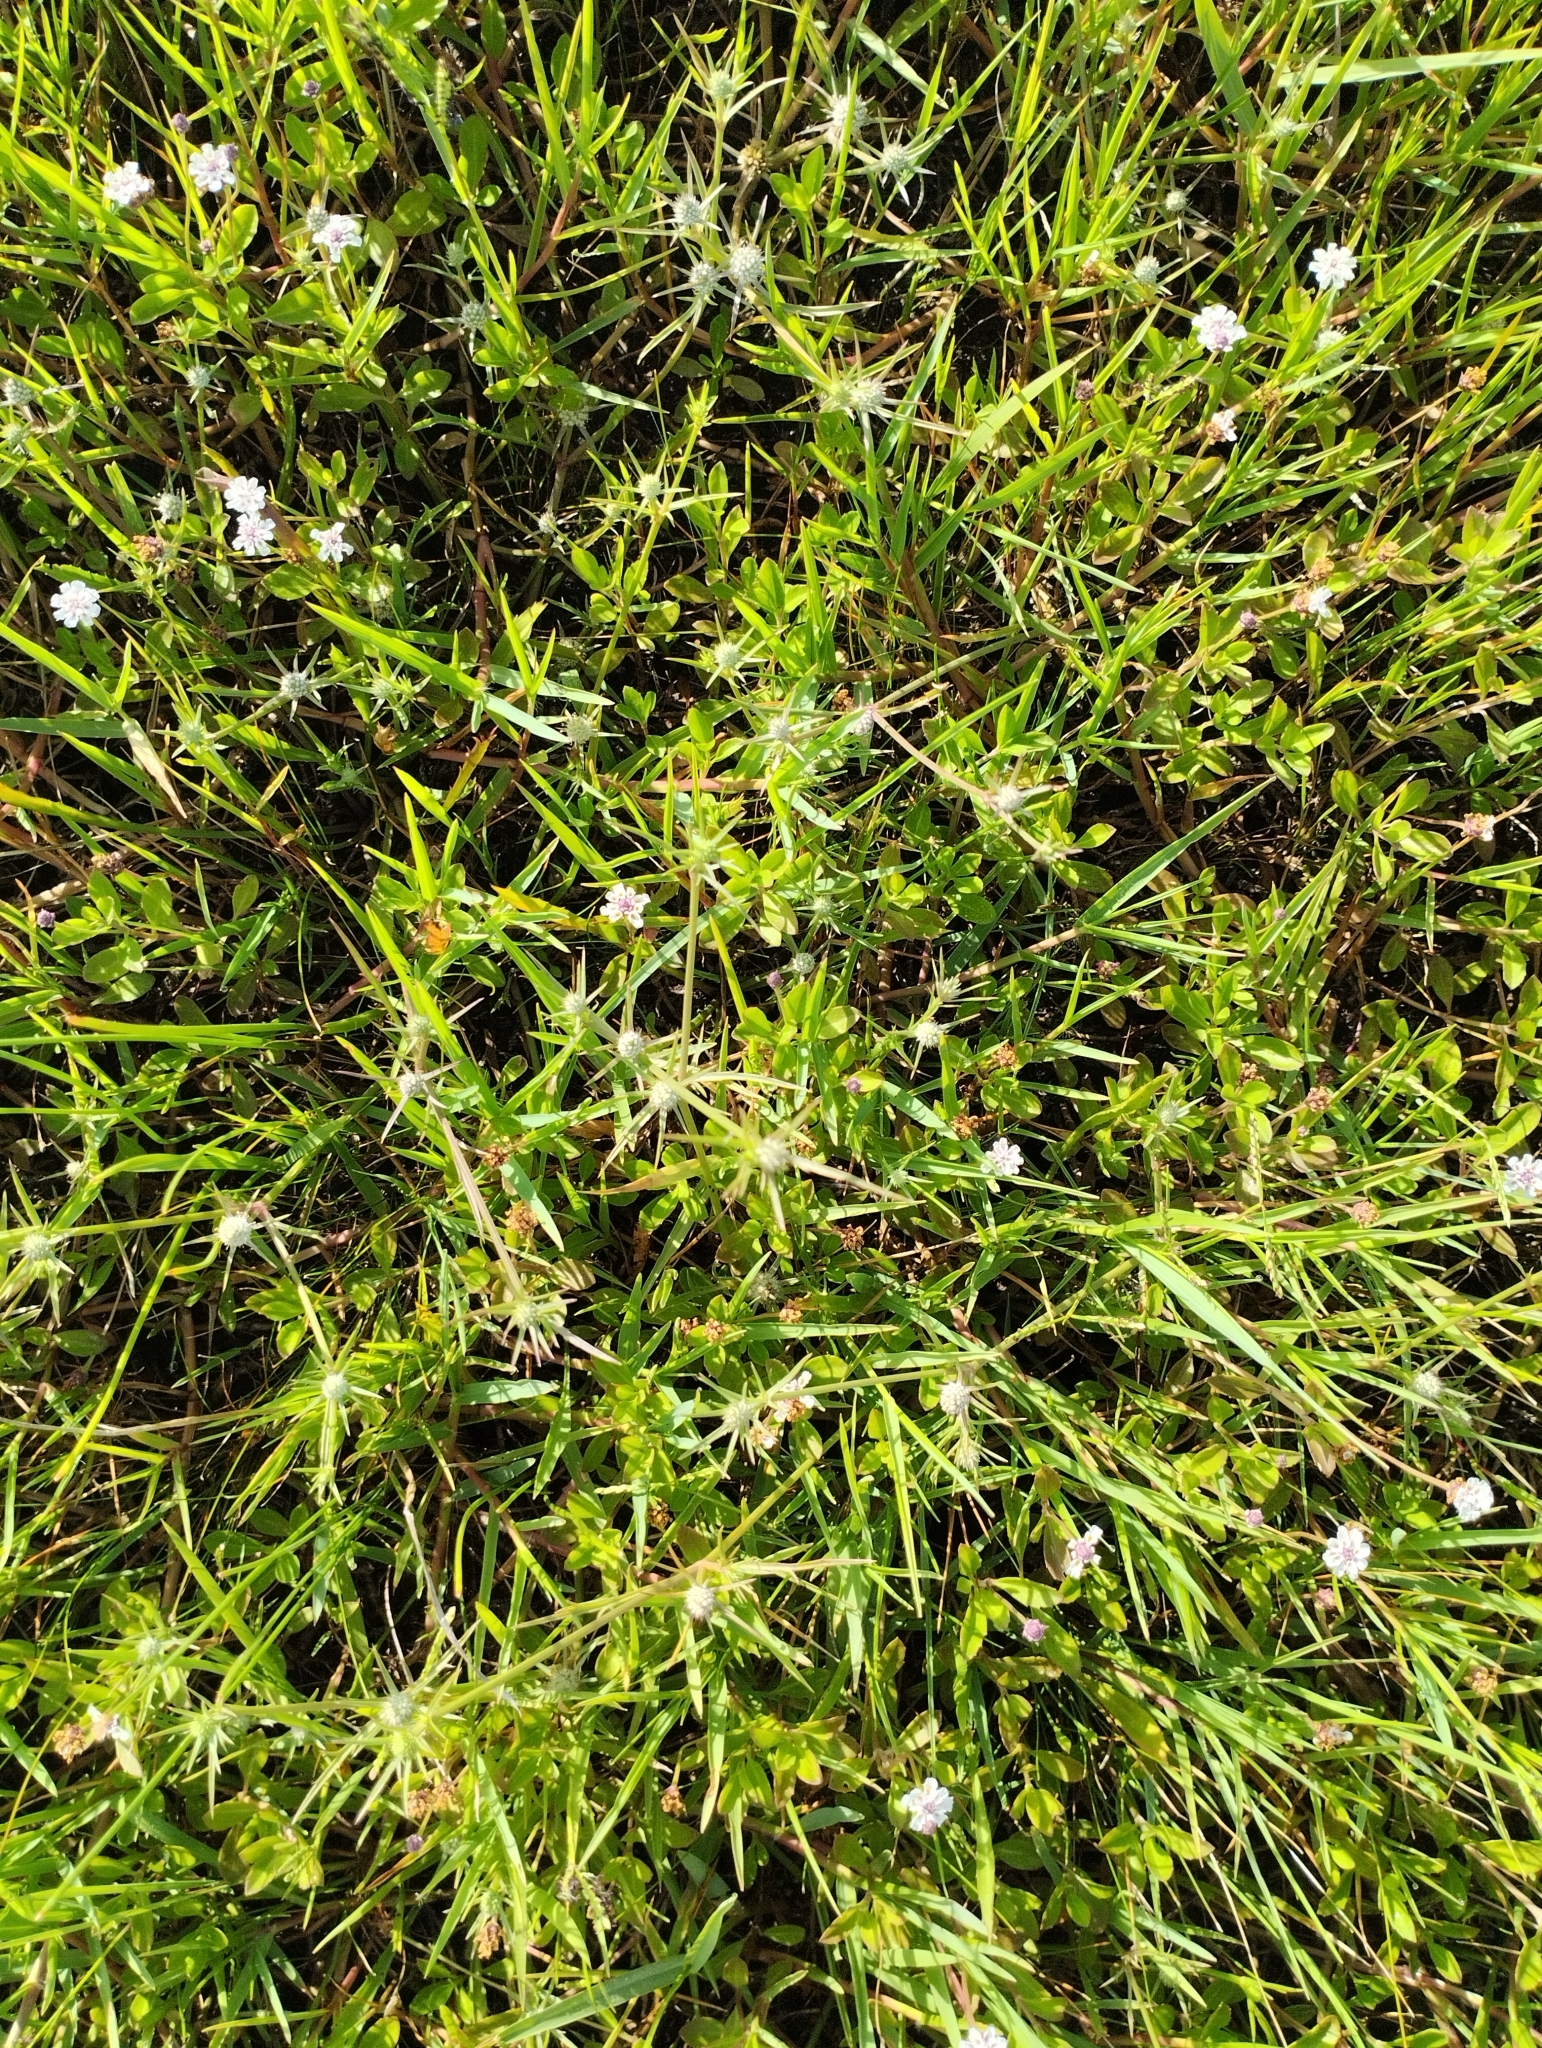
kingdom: Plantae
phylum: Tracheophyta
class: Magnoliopsida
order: Apiales
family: Apiaceae
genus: Eryngium
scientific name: Eryngium echinatum
